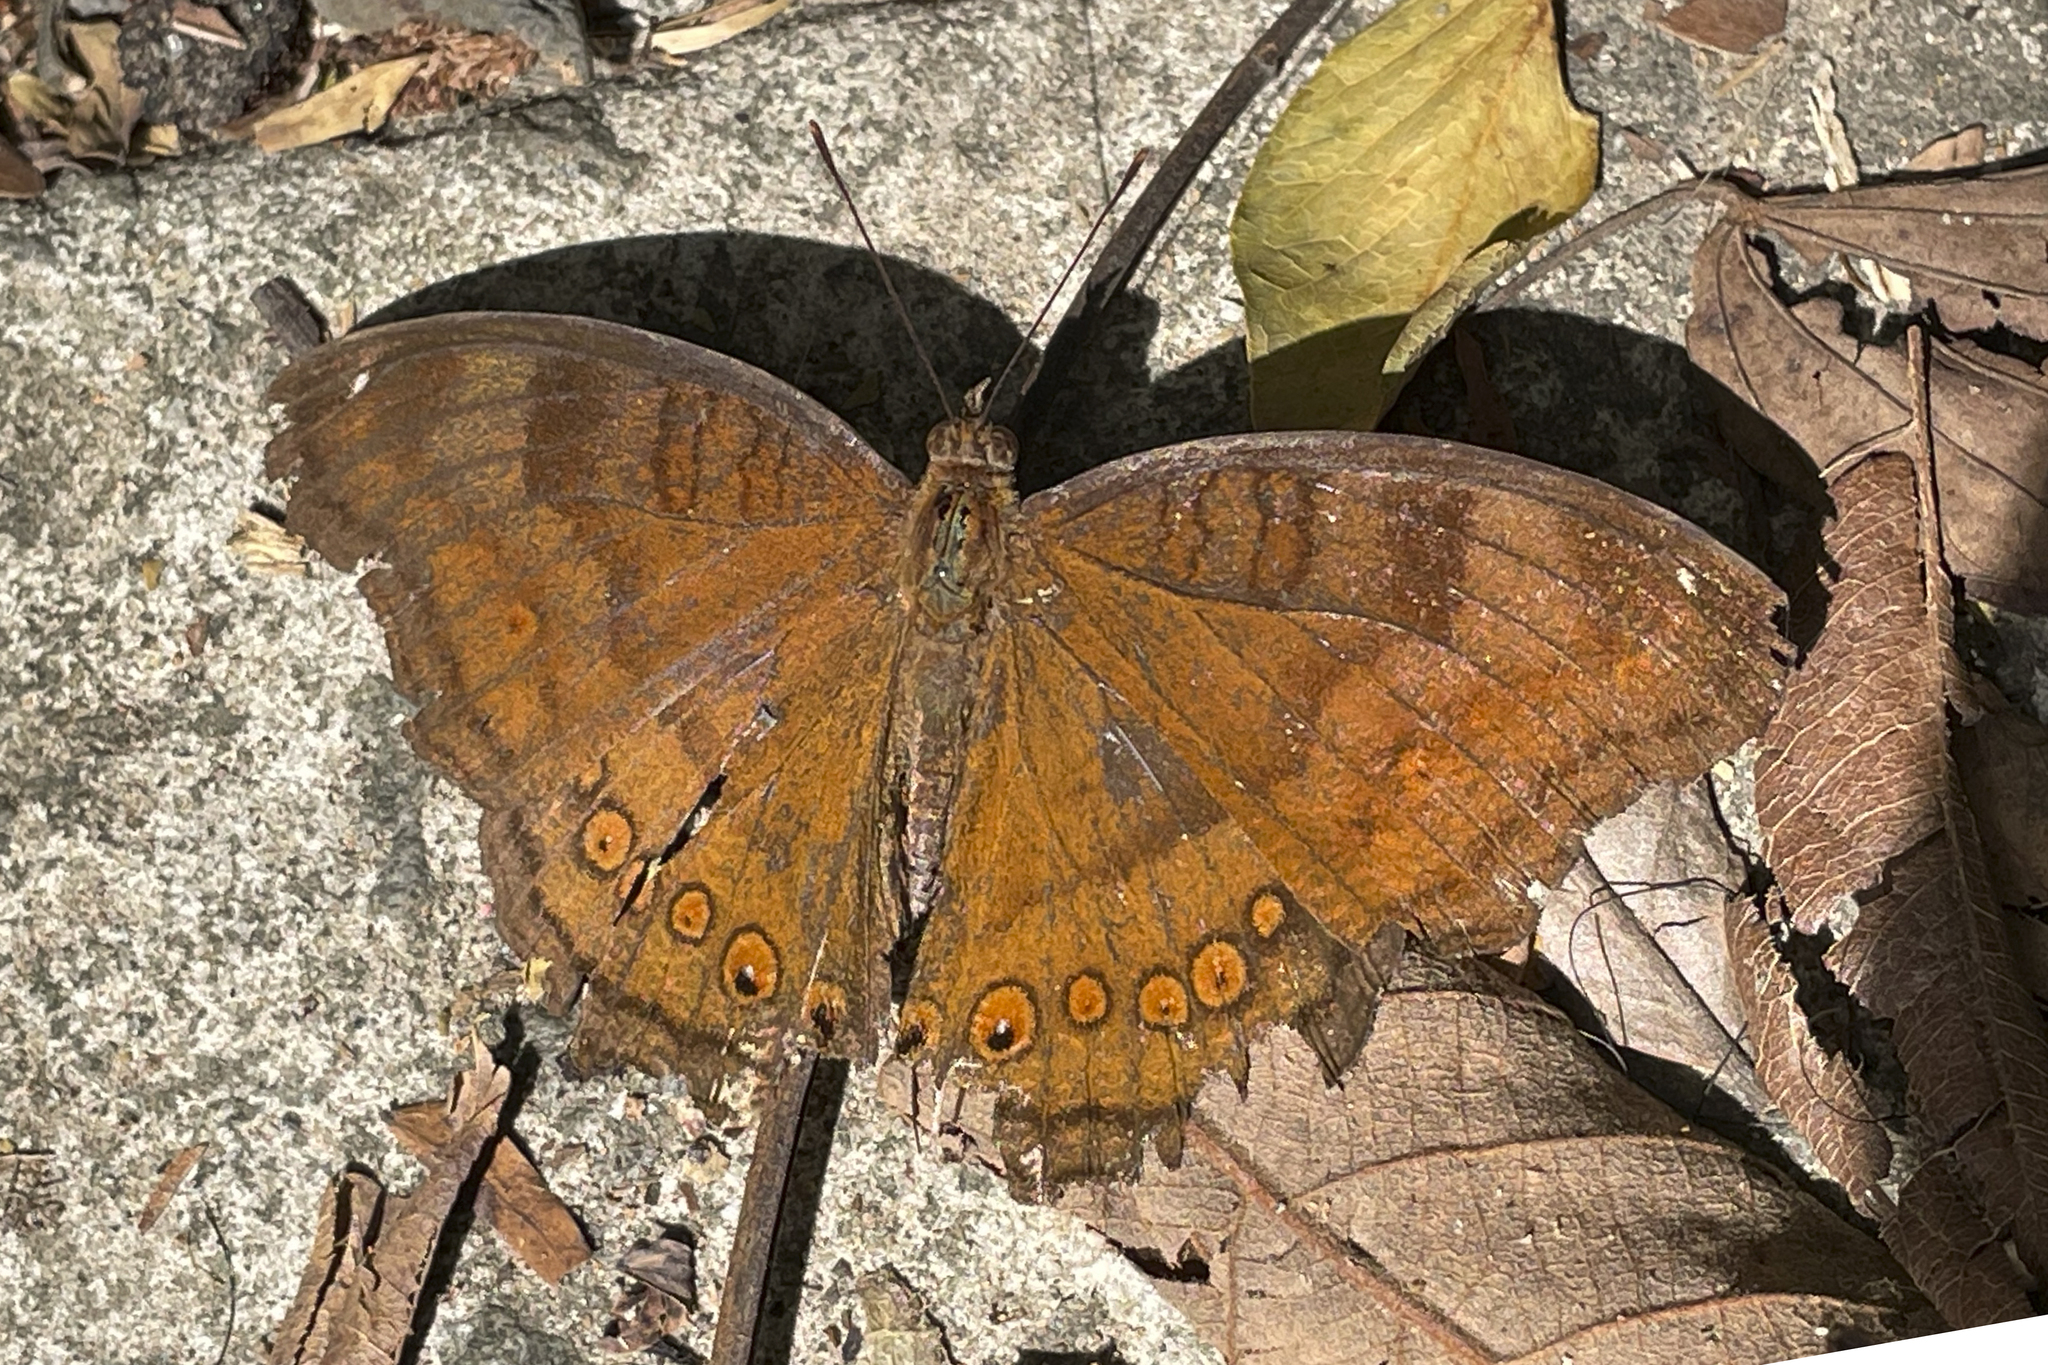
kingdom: Animalia
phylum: Arthropoda
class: Insecta
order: Lepidoptera
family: Nymphalidae
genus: Junonia
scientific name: Junonia hedonia
